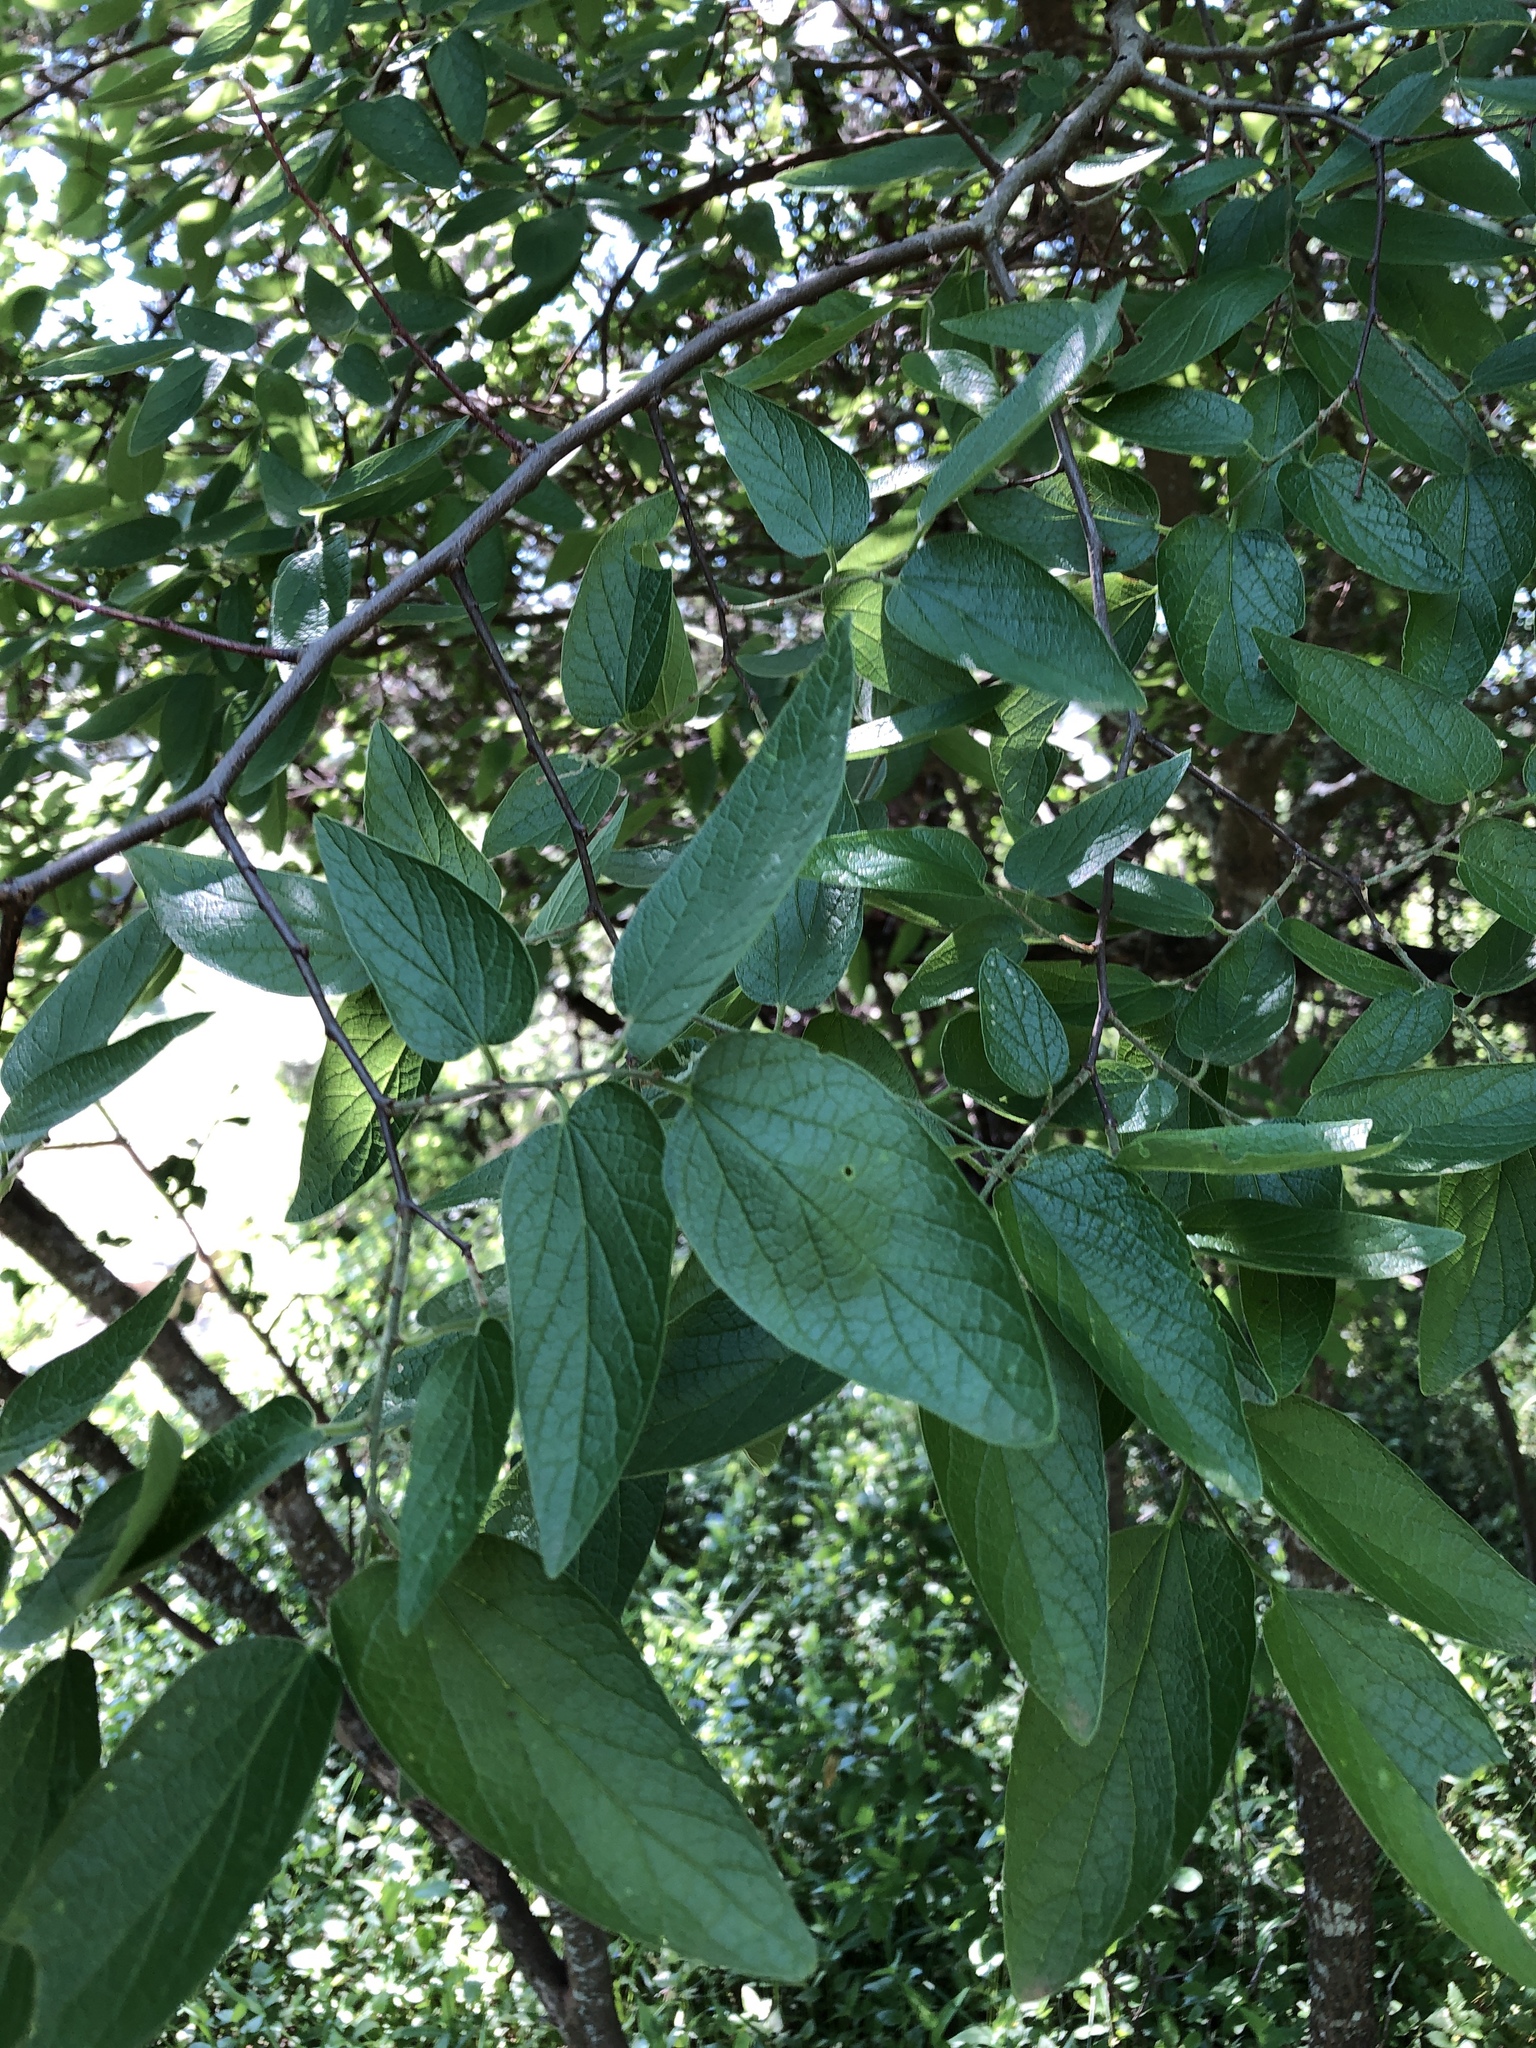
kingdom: Plantae
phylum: Tracheophyta
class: Magnoliopsida
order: Rosales
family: Cannabaceae
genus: Celtis
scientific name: Celtis reticulata
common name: Netleaf hackberry
